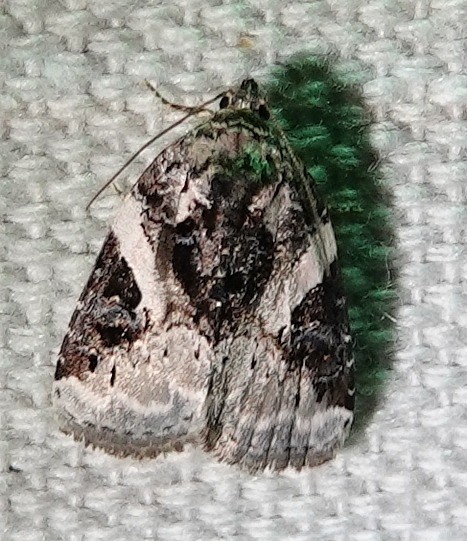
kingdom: Animalia
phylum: Arthropoda
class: Insecta
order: Lepidoptera
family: Noctuidae
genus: Pseudeustrotia
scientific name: Pseudeustrotia carneola
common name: Pink-barred lithacodia moth
